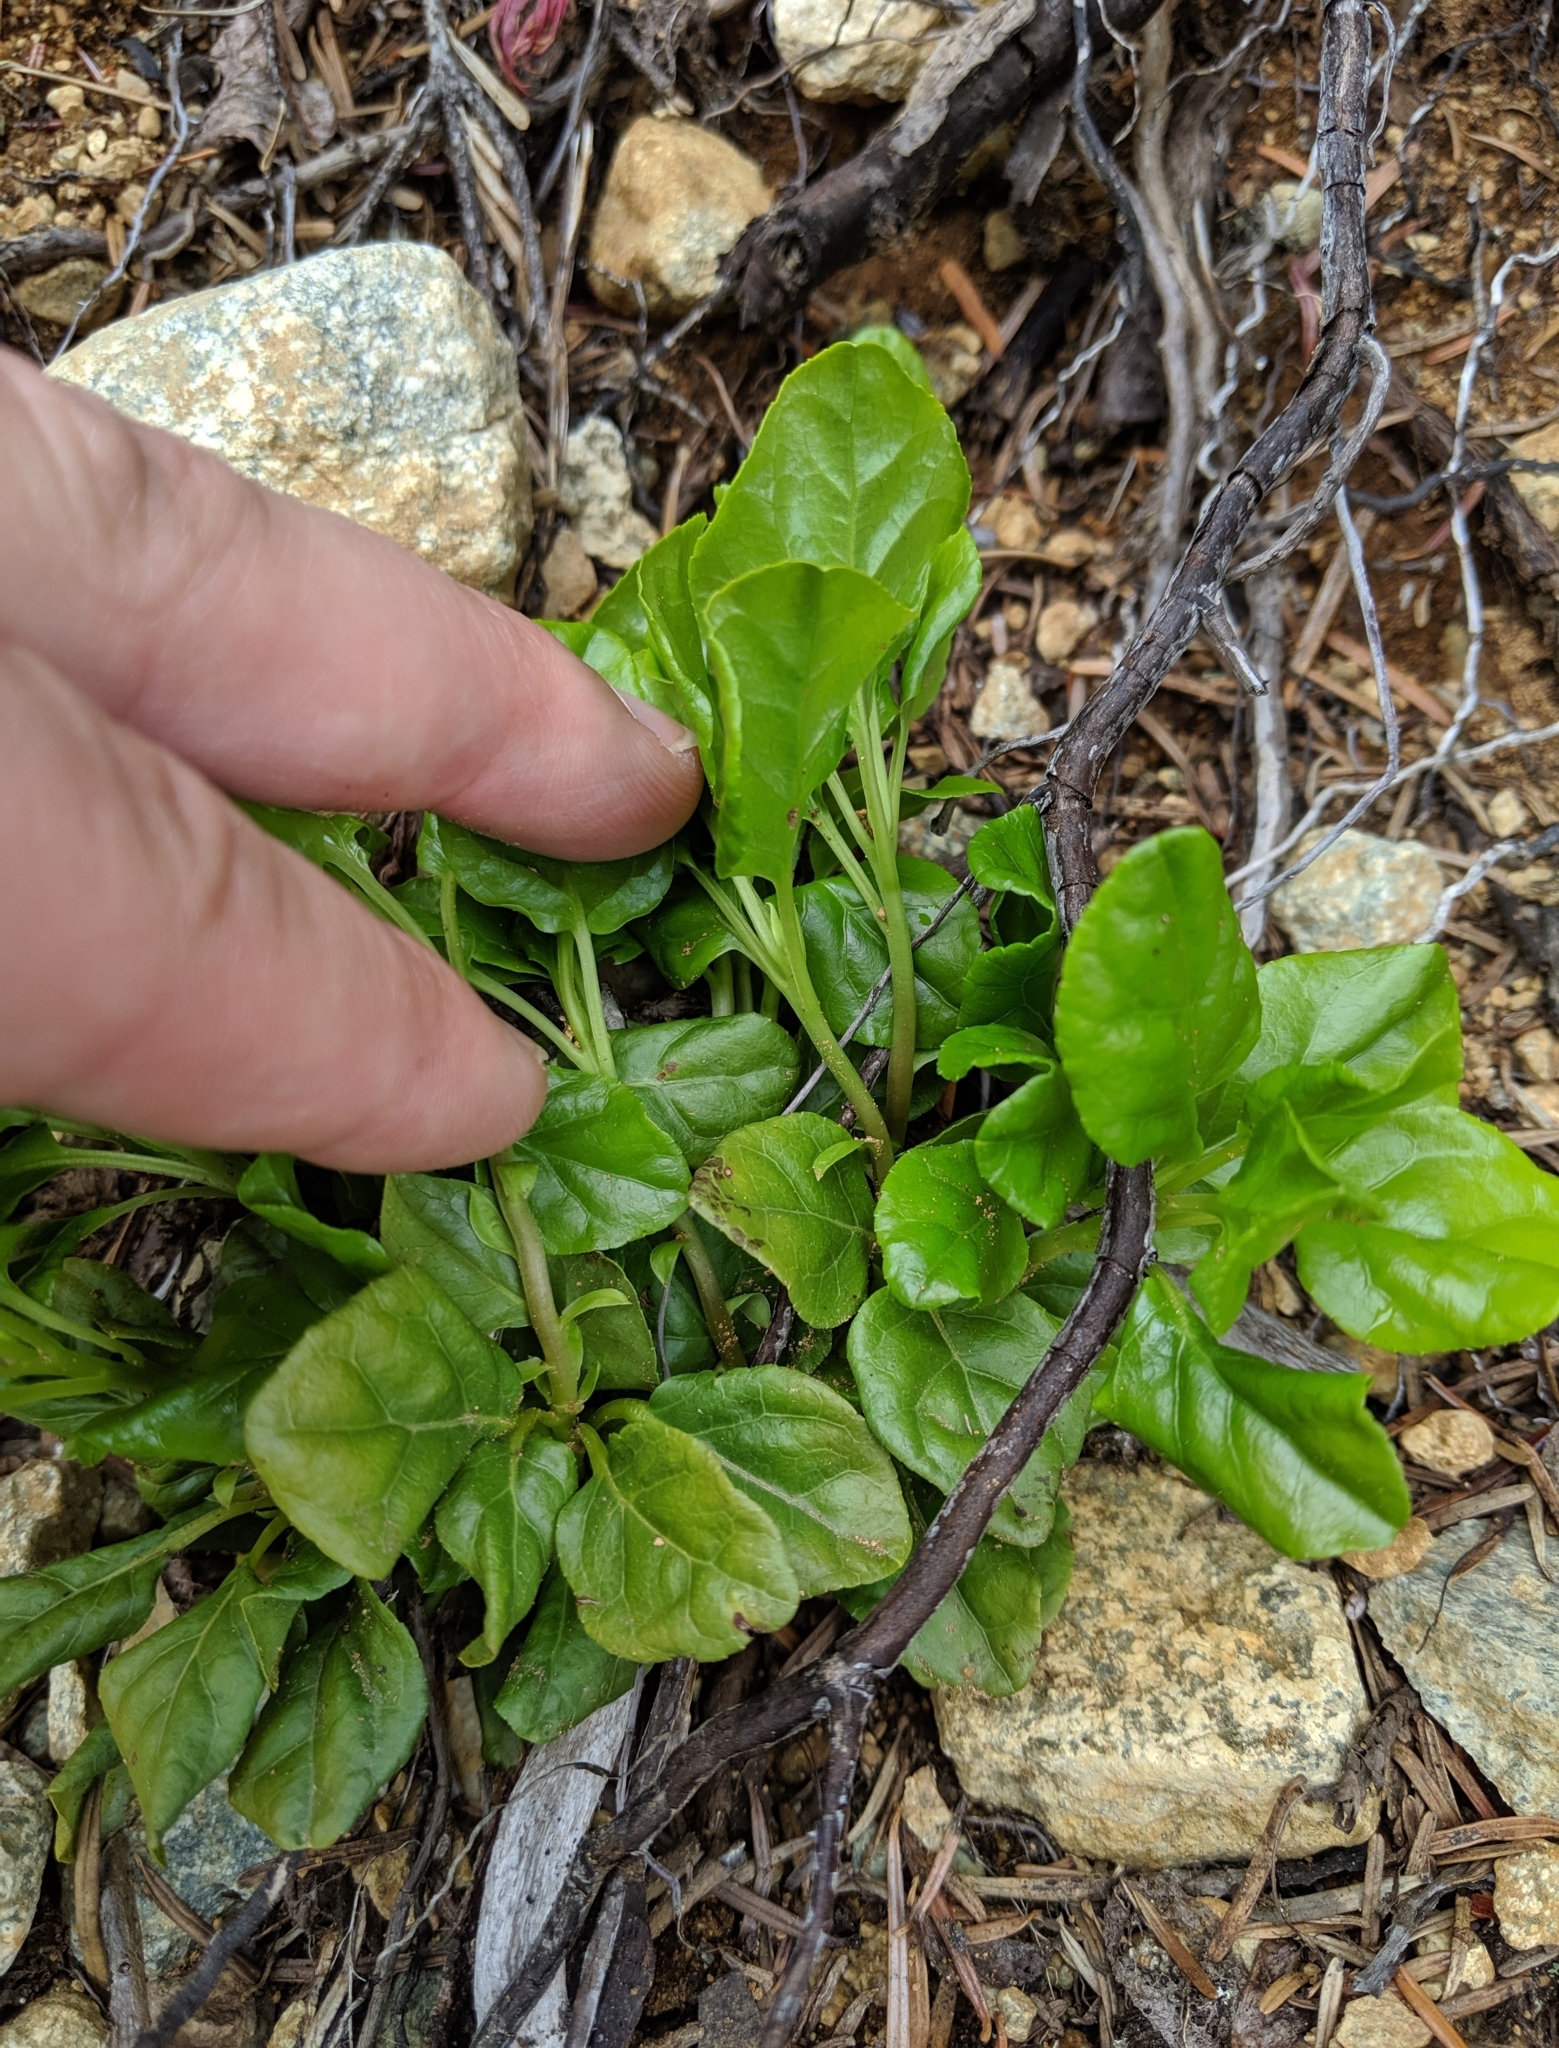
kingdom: Plantae
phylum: Tracheophyta
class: Magnoliopsida
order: Ericales
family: Ericaceae
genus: Orthilia
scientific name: Orthilia secunda
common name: One-sided orthilia
